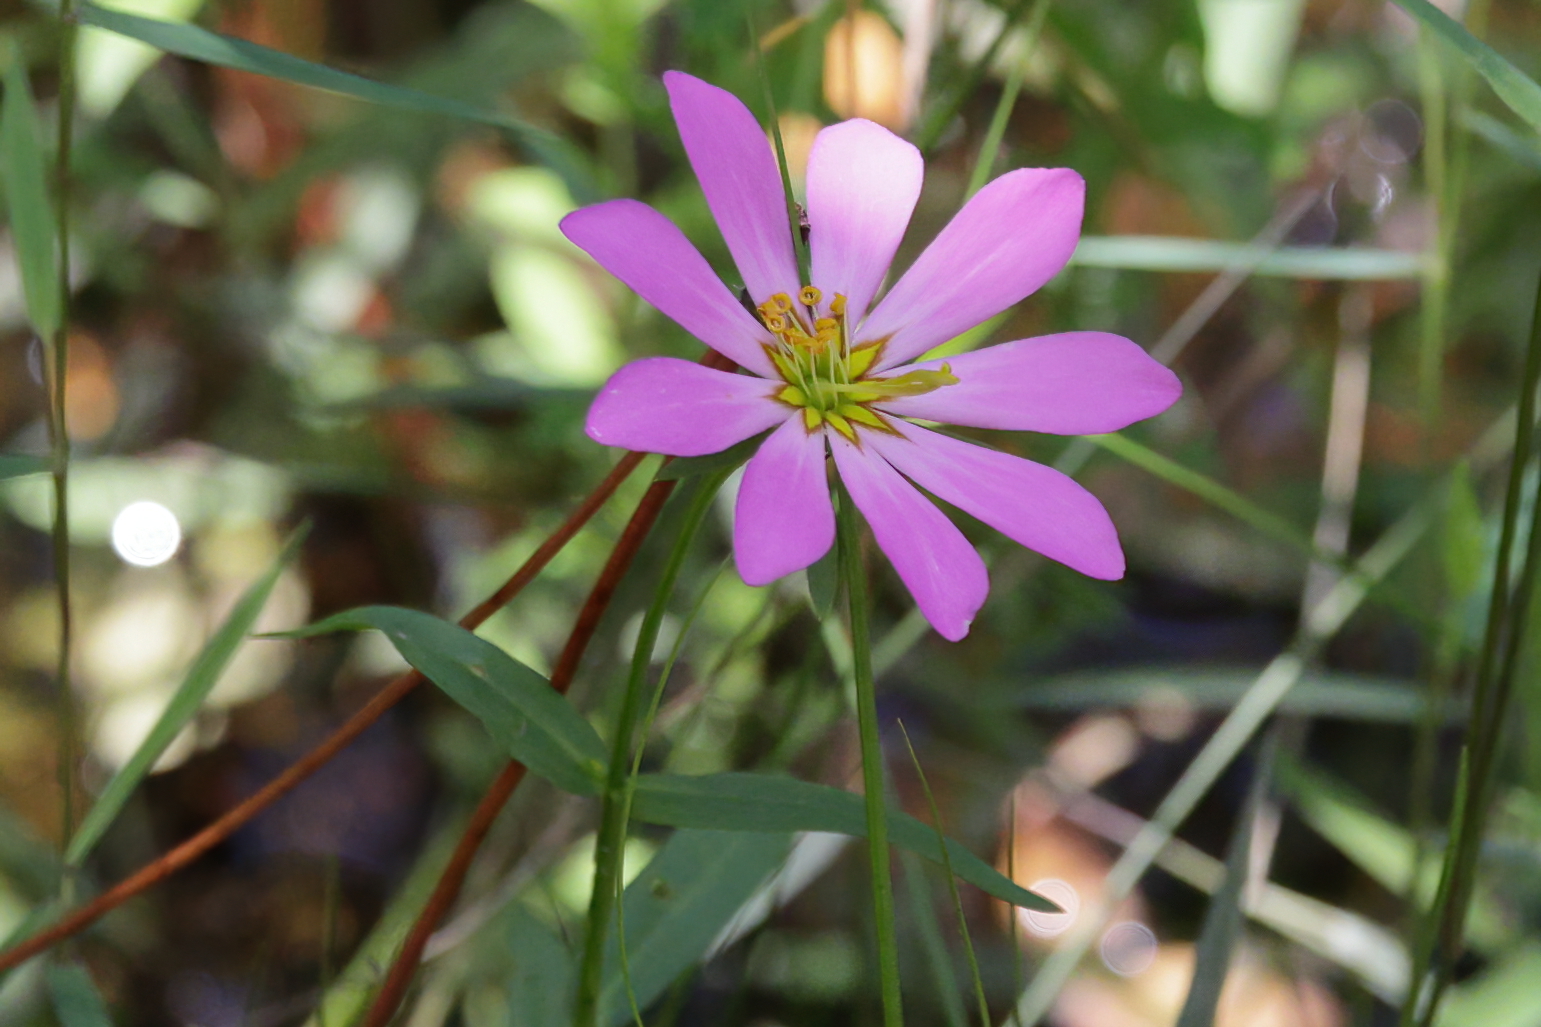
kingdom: Plantae
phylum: Tracheophyta
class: Magnoliopsida
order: Gentianales
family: Gentianaceae
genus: Sabatia
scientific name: Sabatia foliosa
